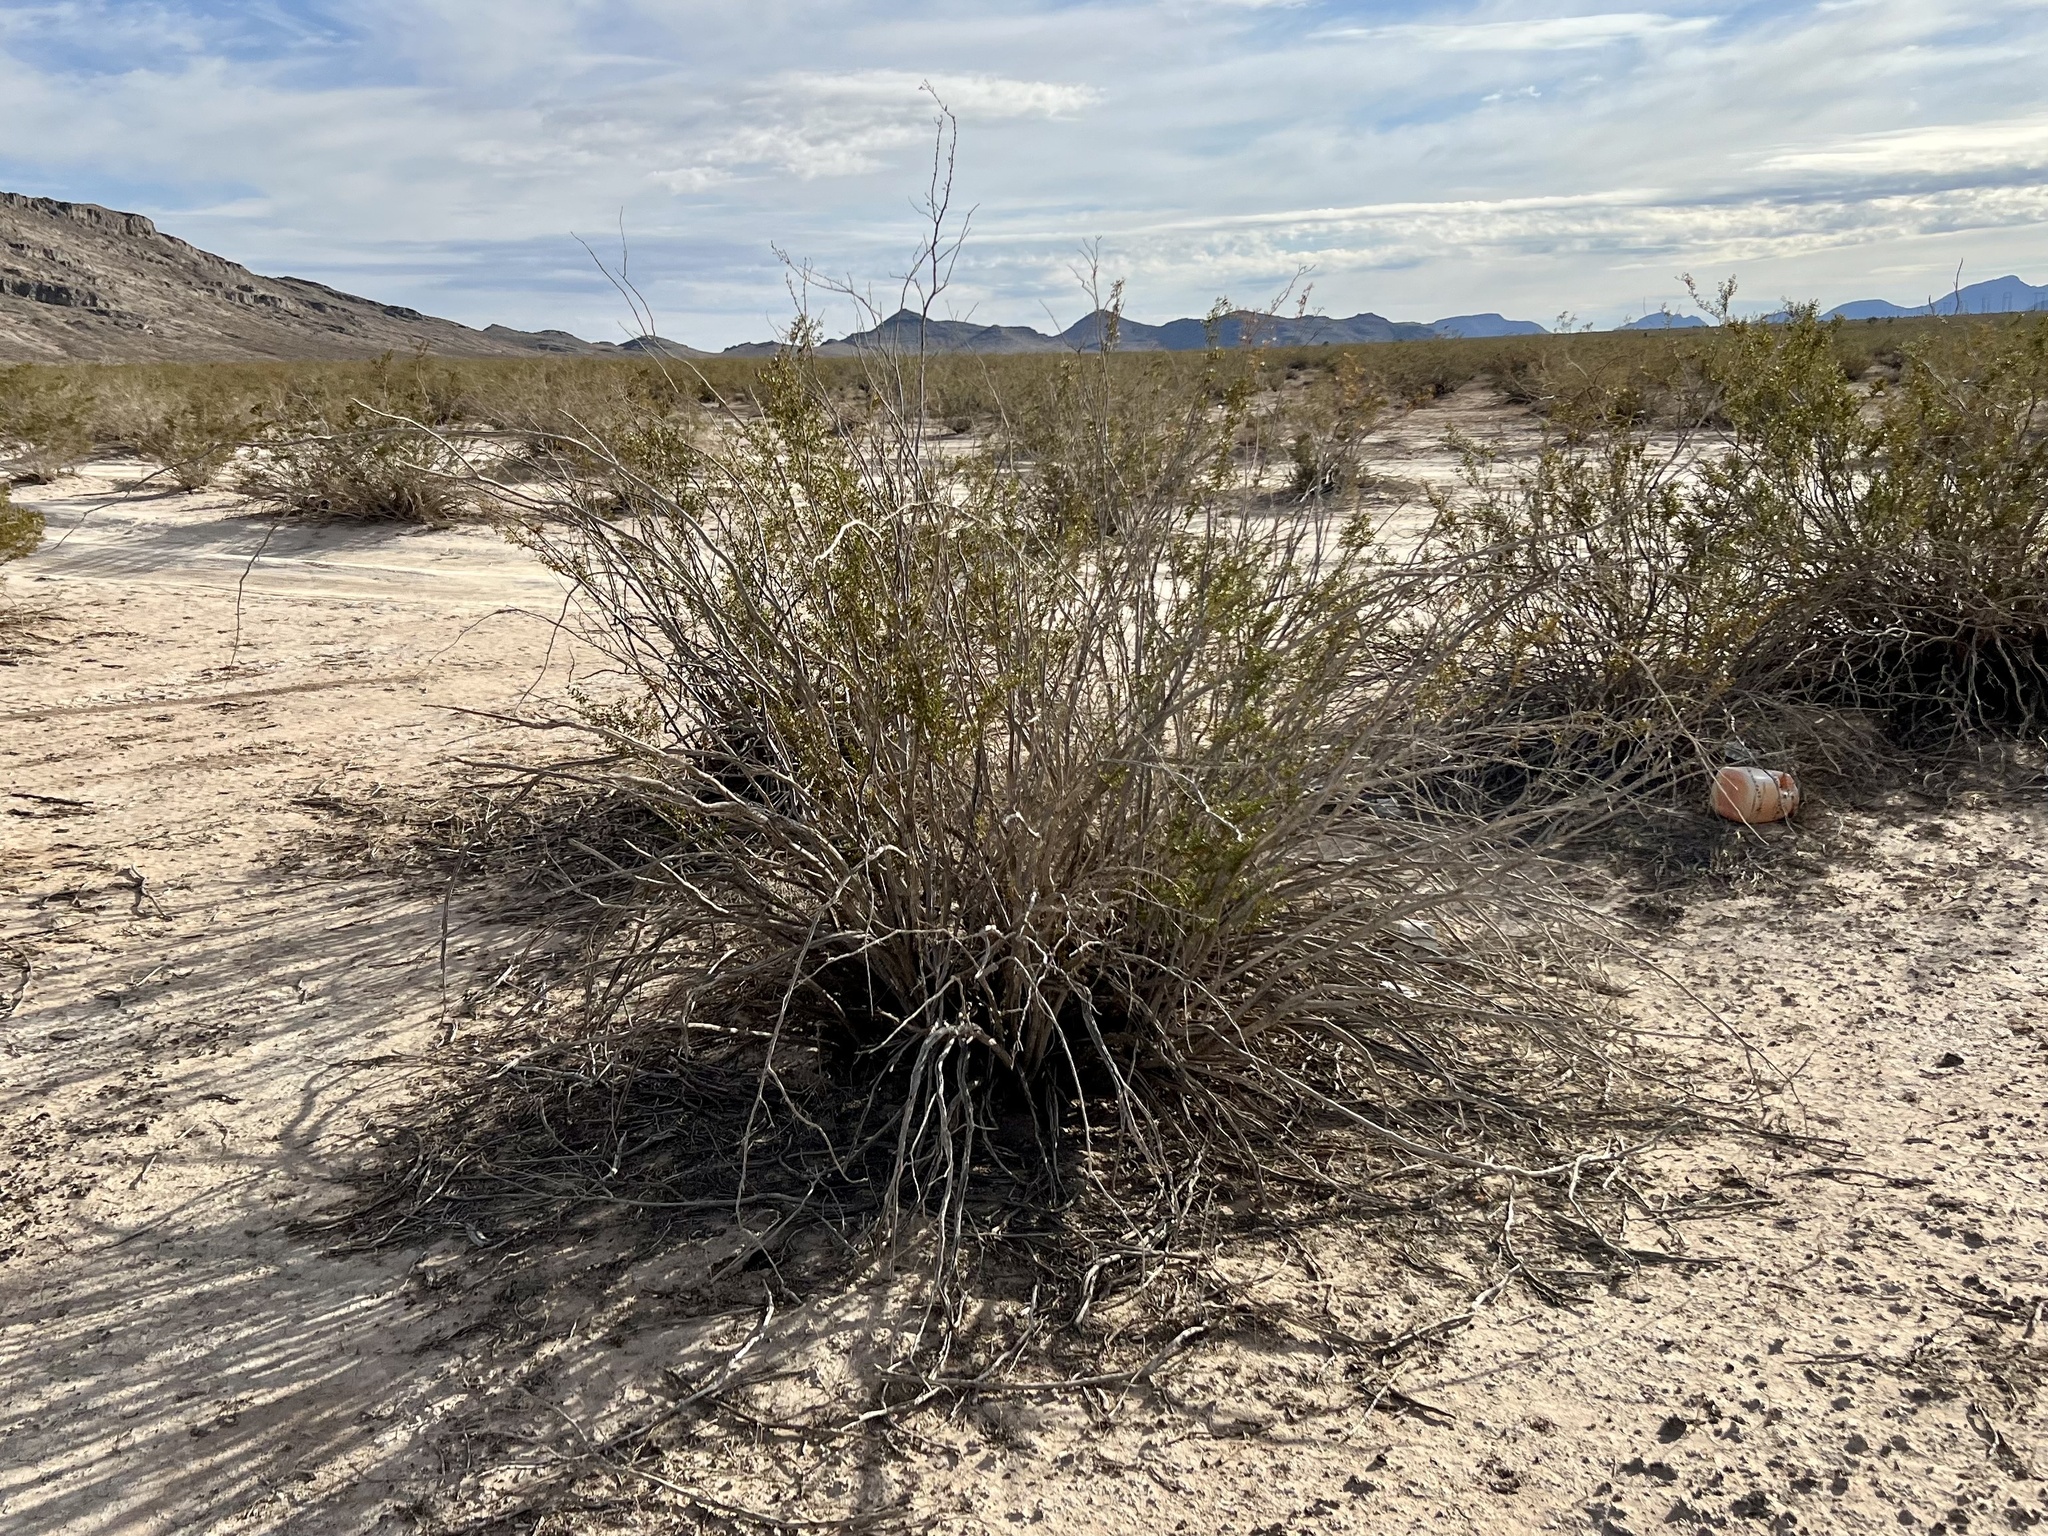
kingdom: Plantae
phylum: Tracheophyta
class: Magnoliopsida
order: Zygophyllales
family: Zygophyllaceae
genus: Larrea
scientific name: Larrea tridentata
